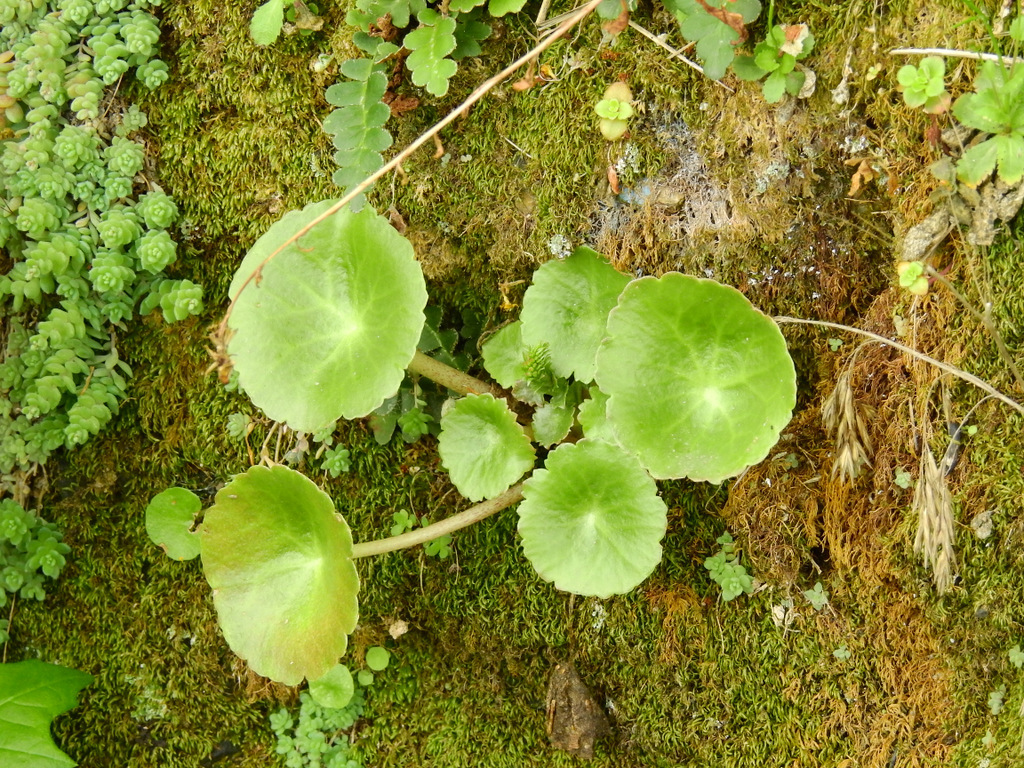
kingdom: Plantae
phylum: Tracheophyta
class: Magnoliopsida
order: Saxifragales
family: Crassulaceae
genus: Umbilicus
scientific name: Umbilicus rupestris
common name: Navelwort
